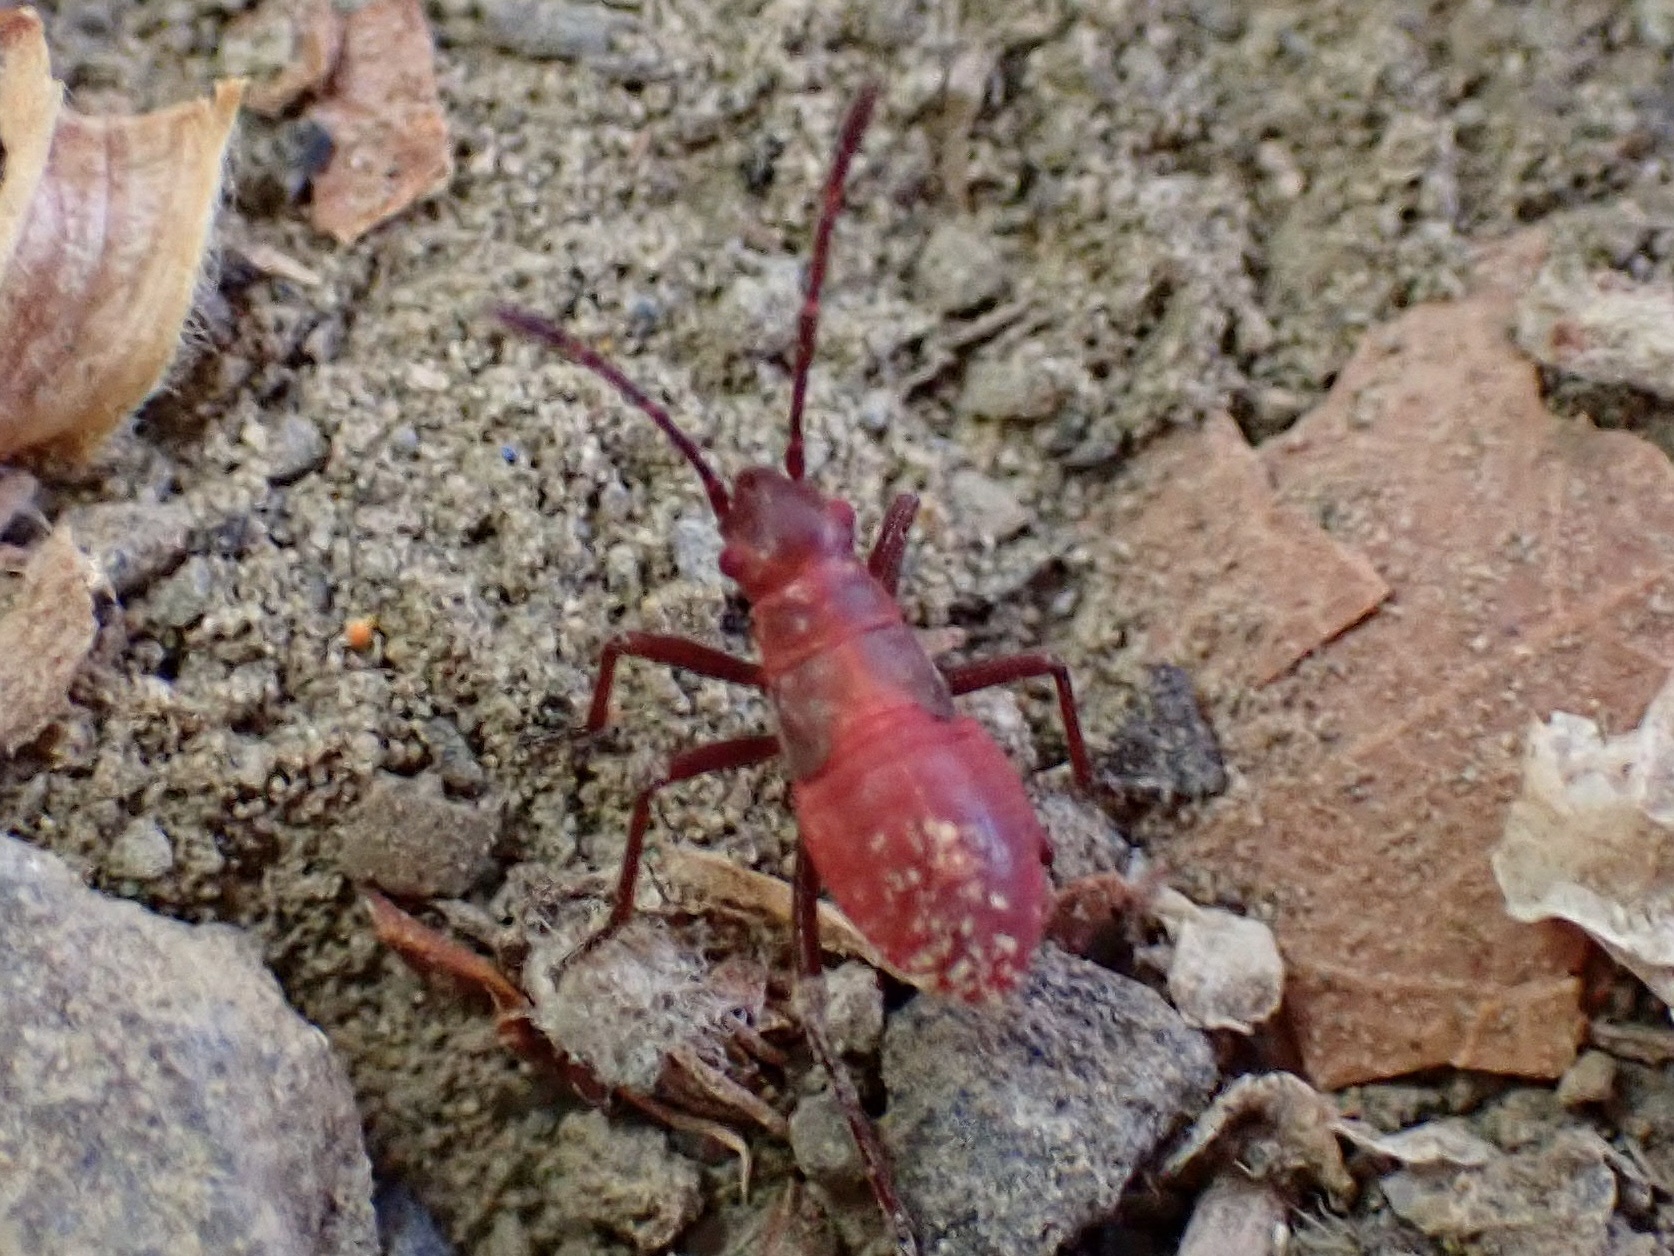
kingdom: Animalia
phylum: Arthropoda
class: Insecta
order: Hemiptera
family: Rhopalidae
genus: Boisea
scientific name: Boisea rubrolineata
